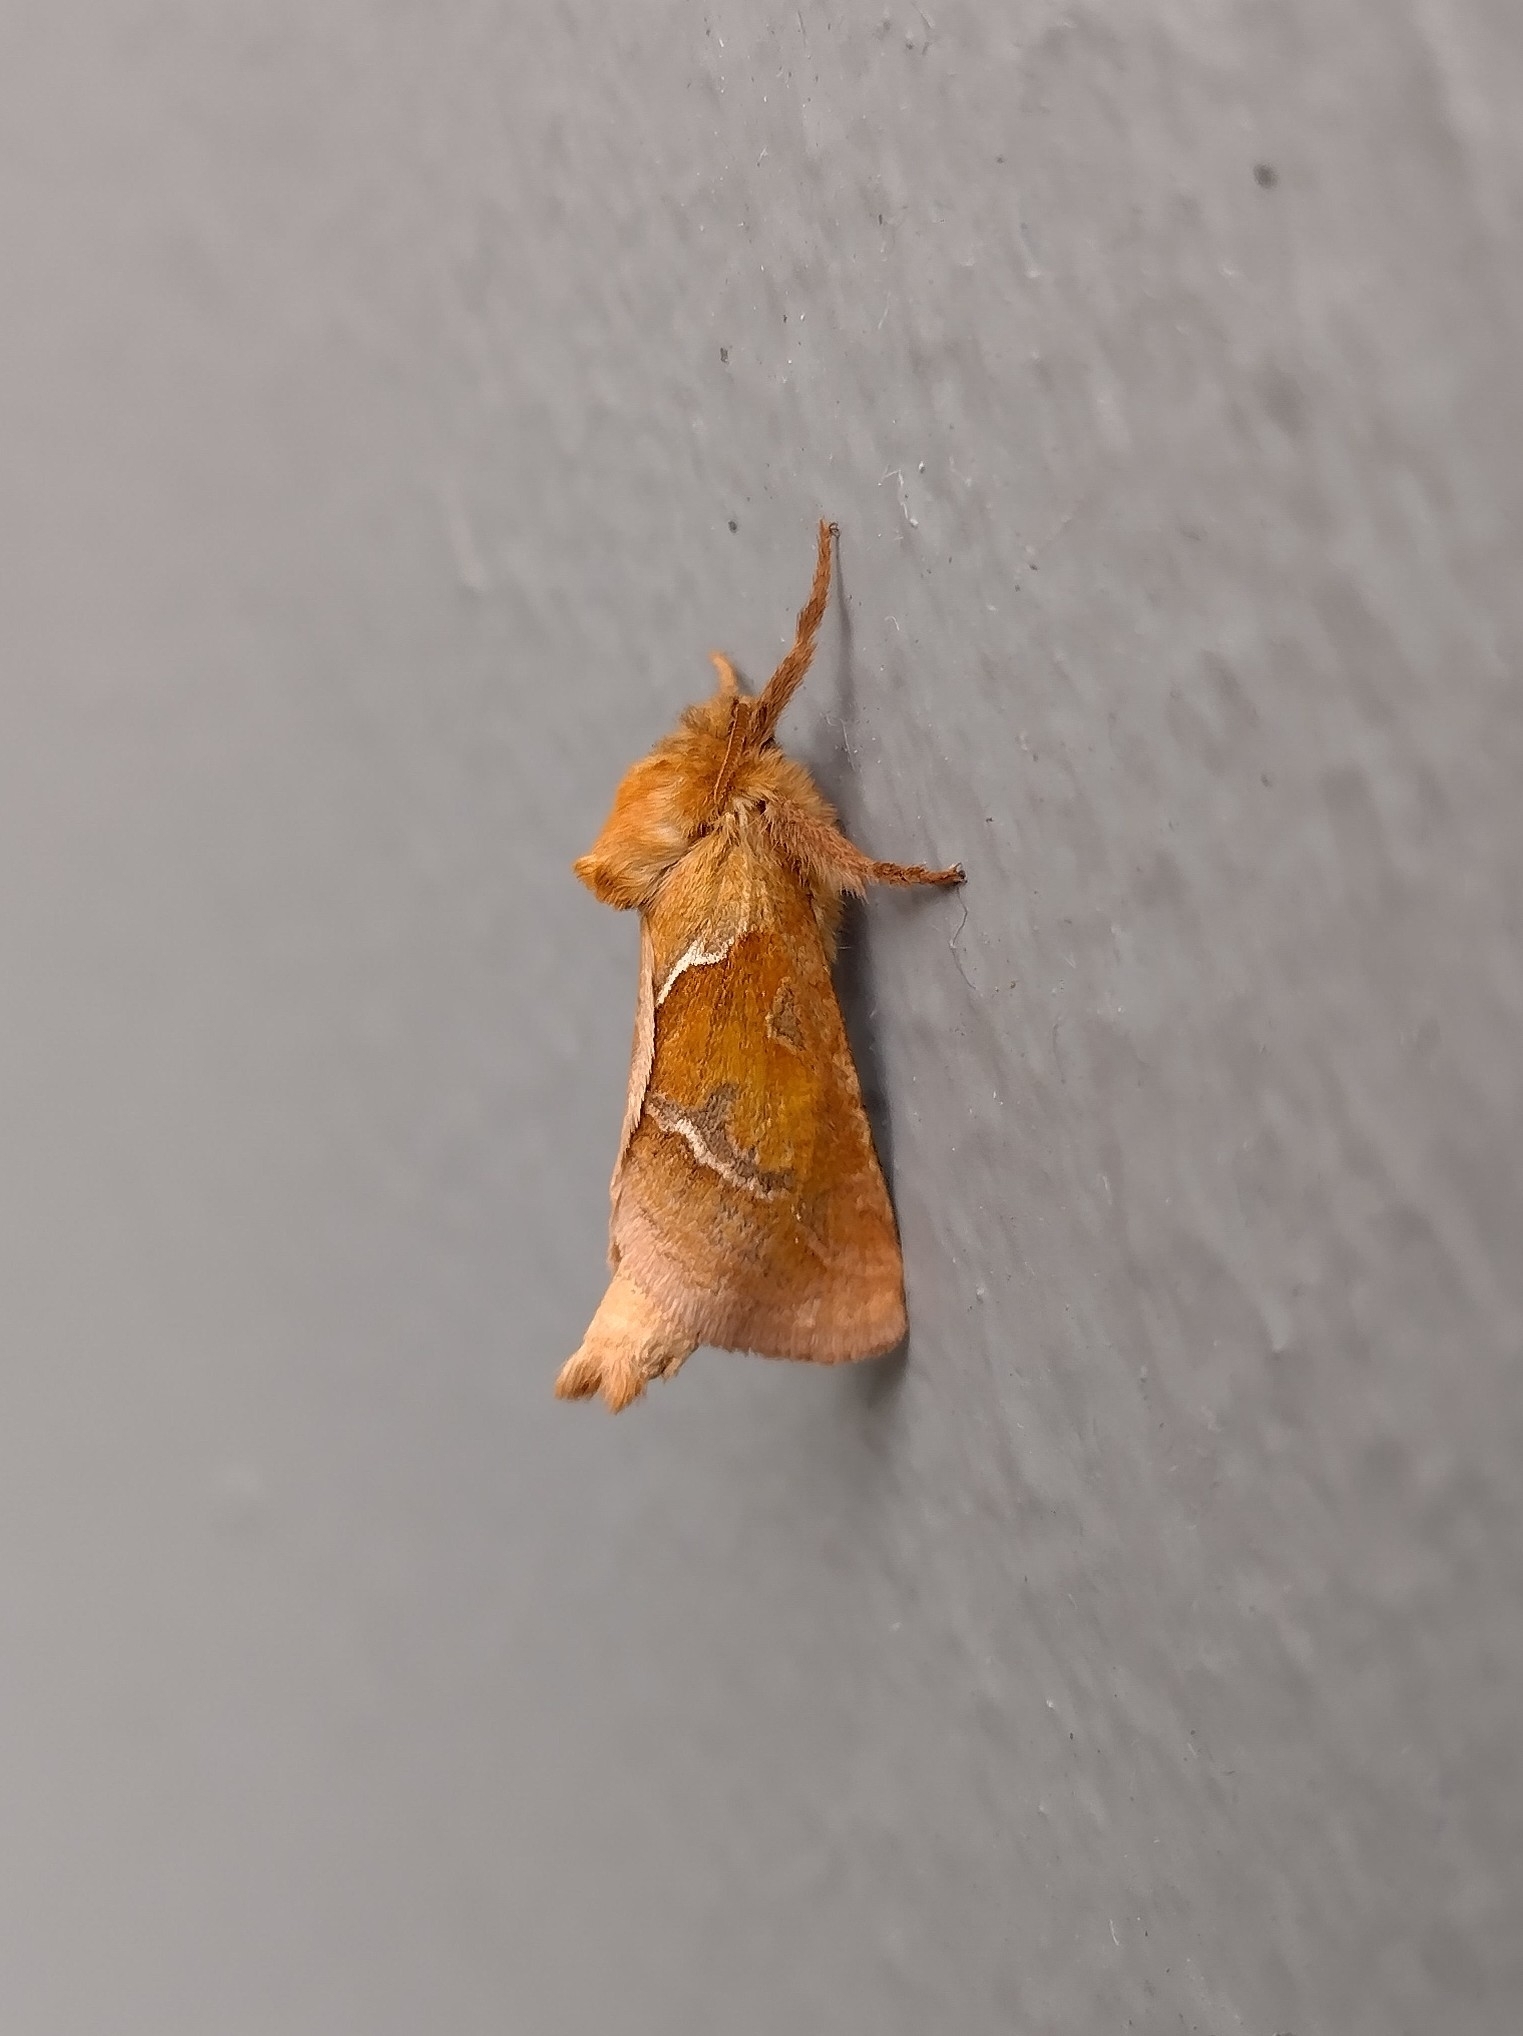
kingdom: Animalia
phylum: Arthropoda
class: Insecta
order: Lepidoptera
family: Hepialidae
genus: Triodia
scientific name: Triodia sylvina
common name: Orange swift
